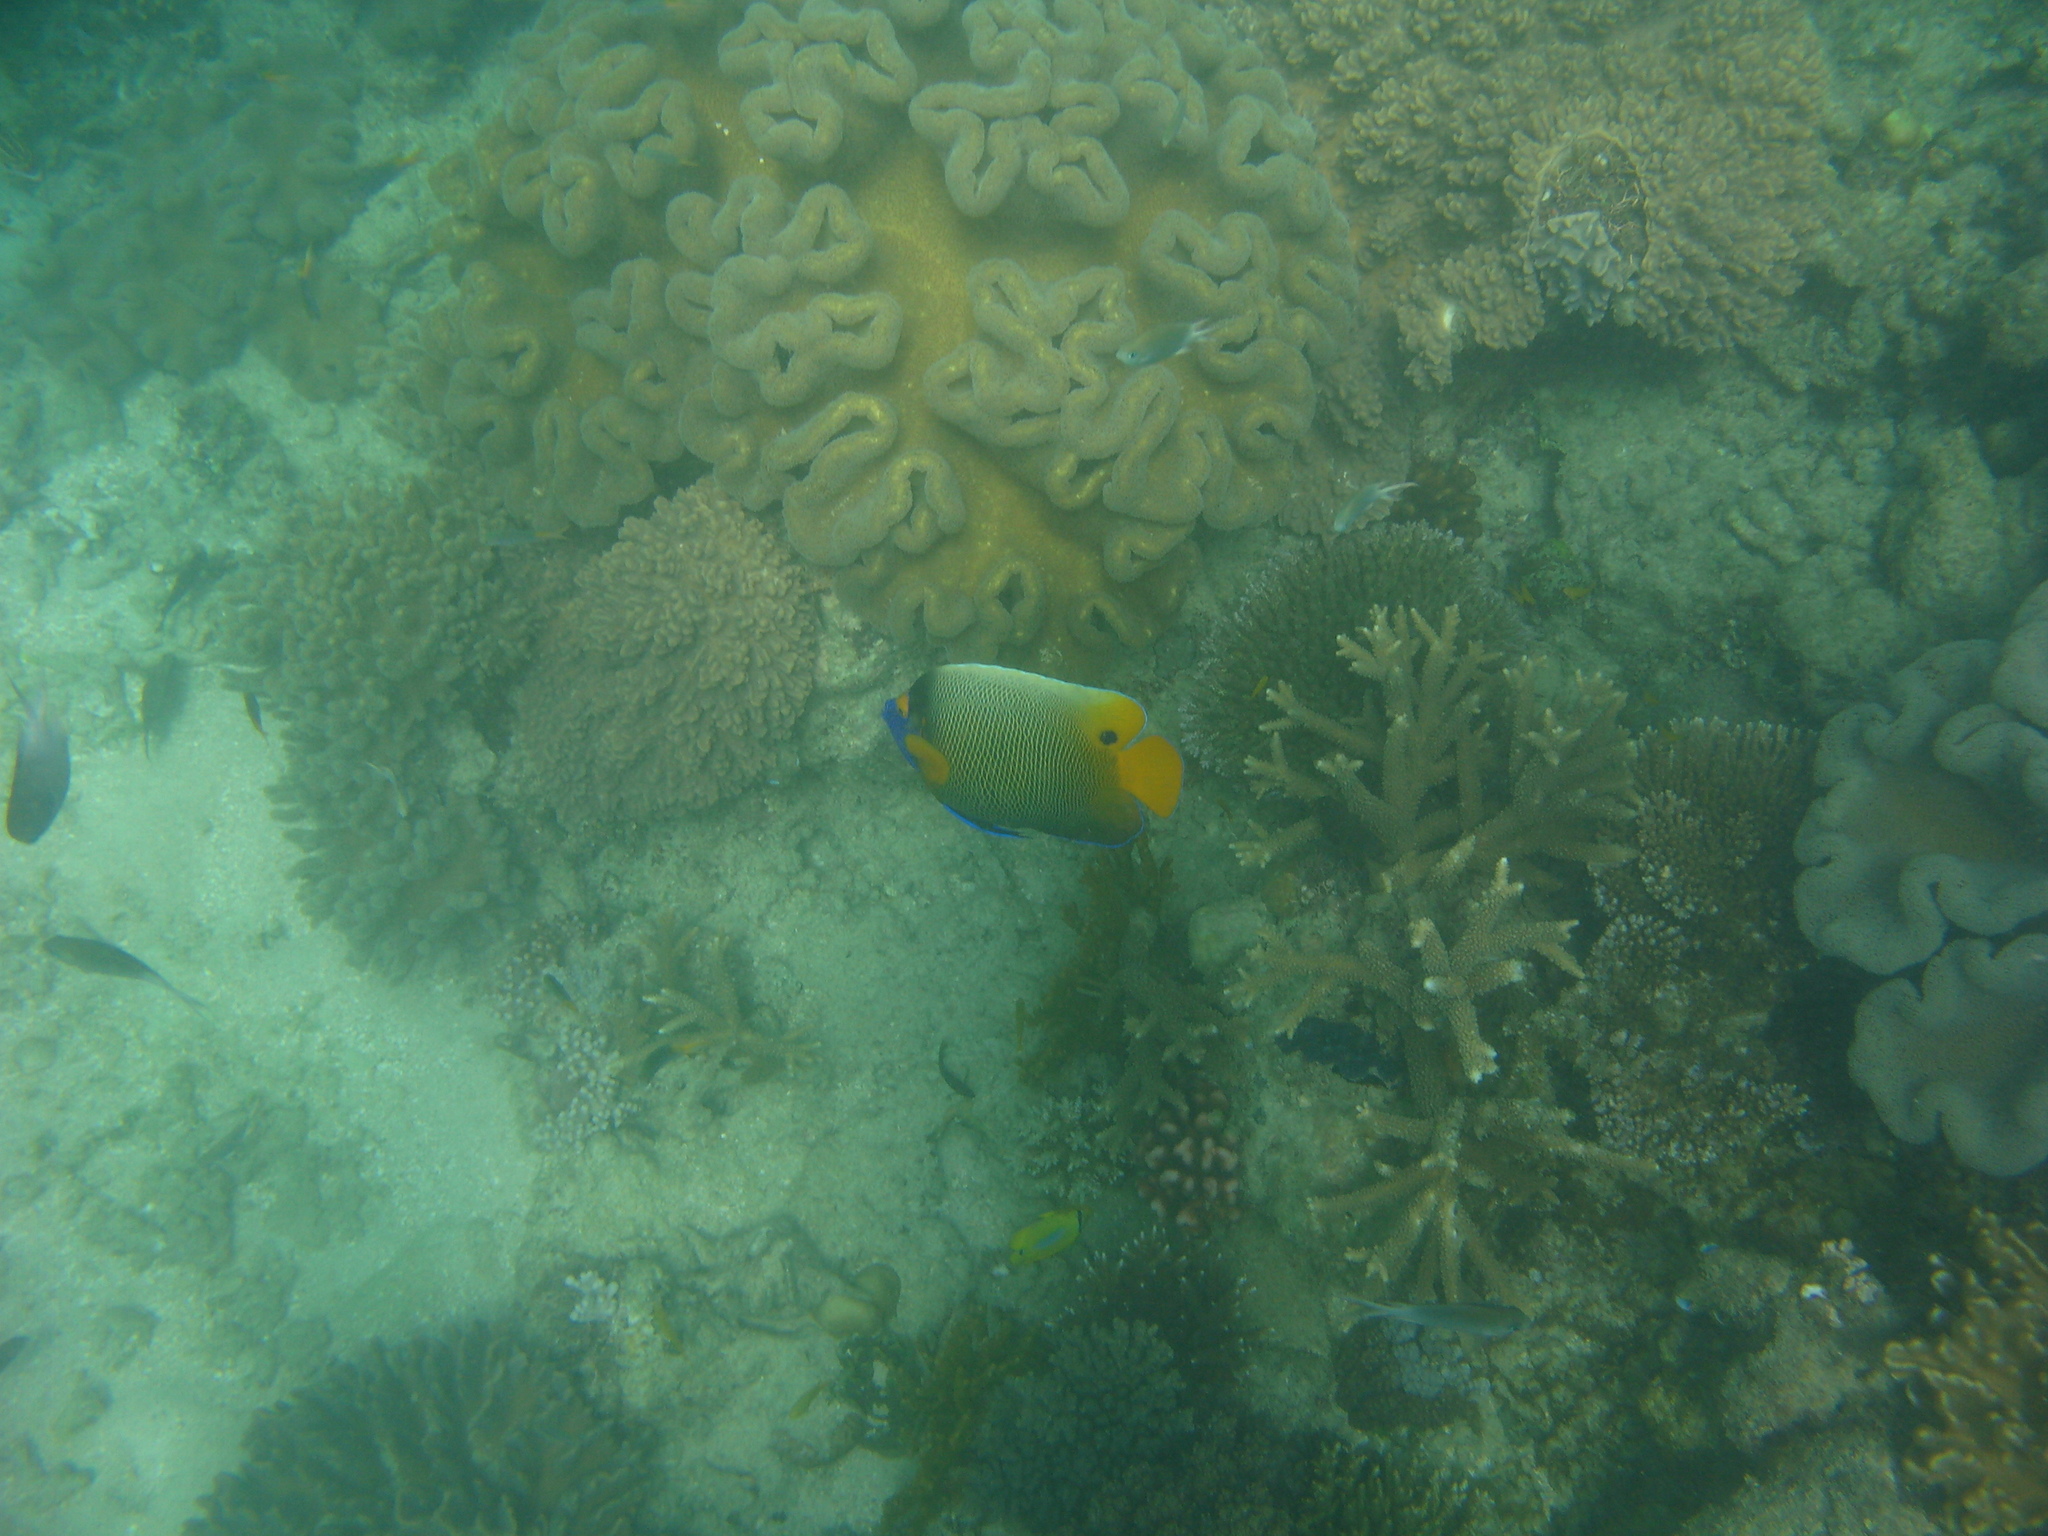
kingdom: Animalia
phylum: Chordata
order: Perciformes
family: Pomacanthidae
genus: Pomacanthus
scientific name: Pomacanthus xanthometopon
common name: Yellow-faced angelfish
